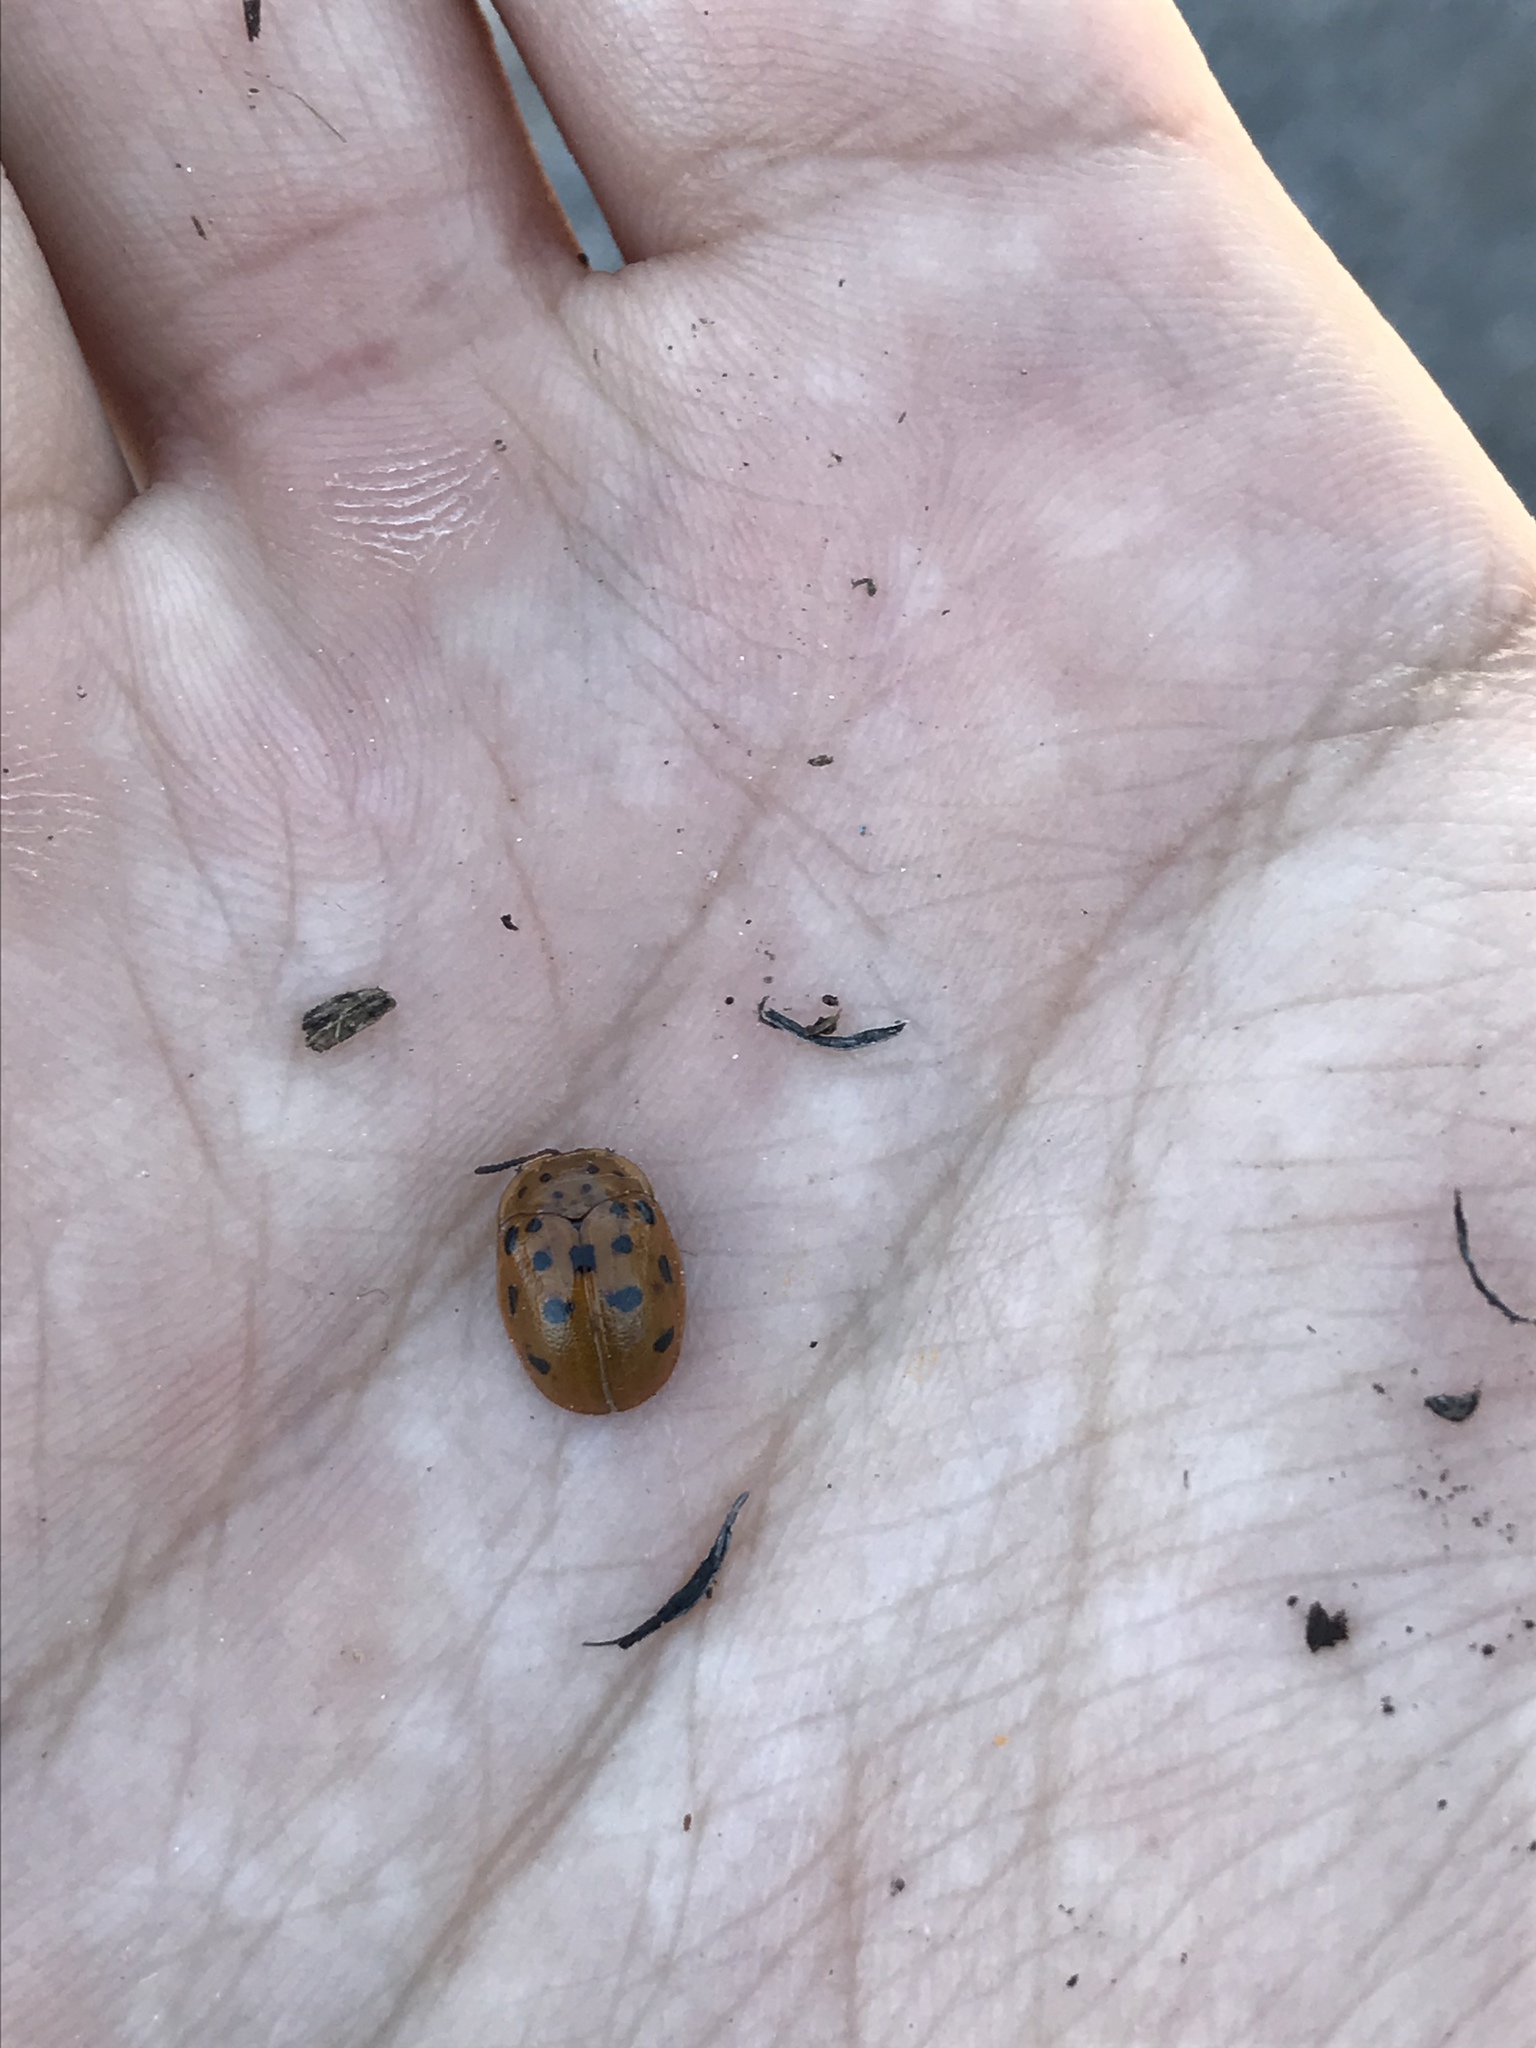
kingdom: Animalia
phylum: Arthropoda
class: Insecta
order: Coleoptera
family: Chrysomelidae
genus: Chelymorpha
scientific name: Chelymorpha cassidea
